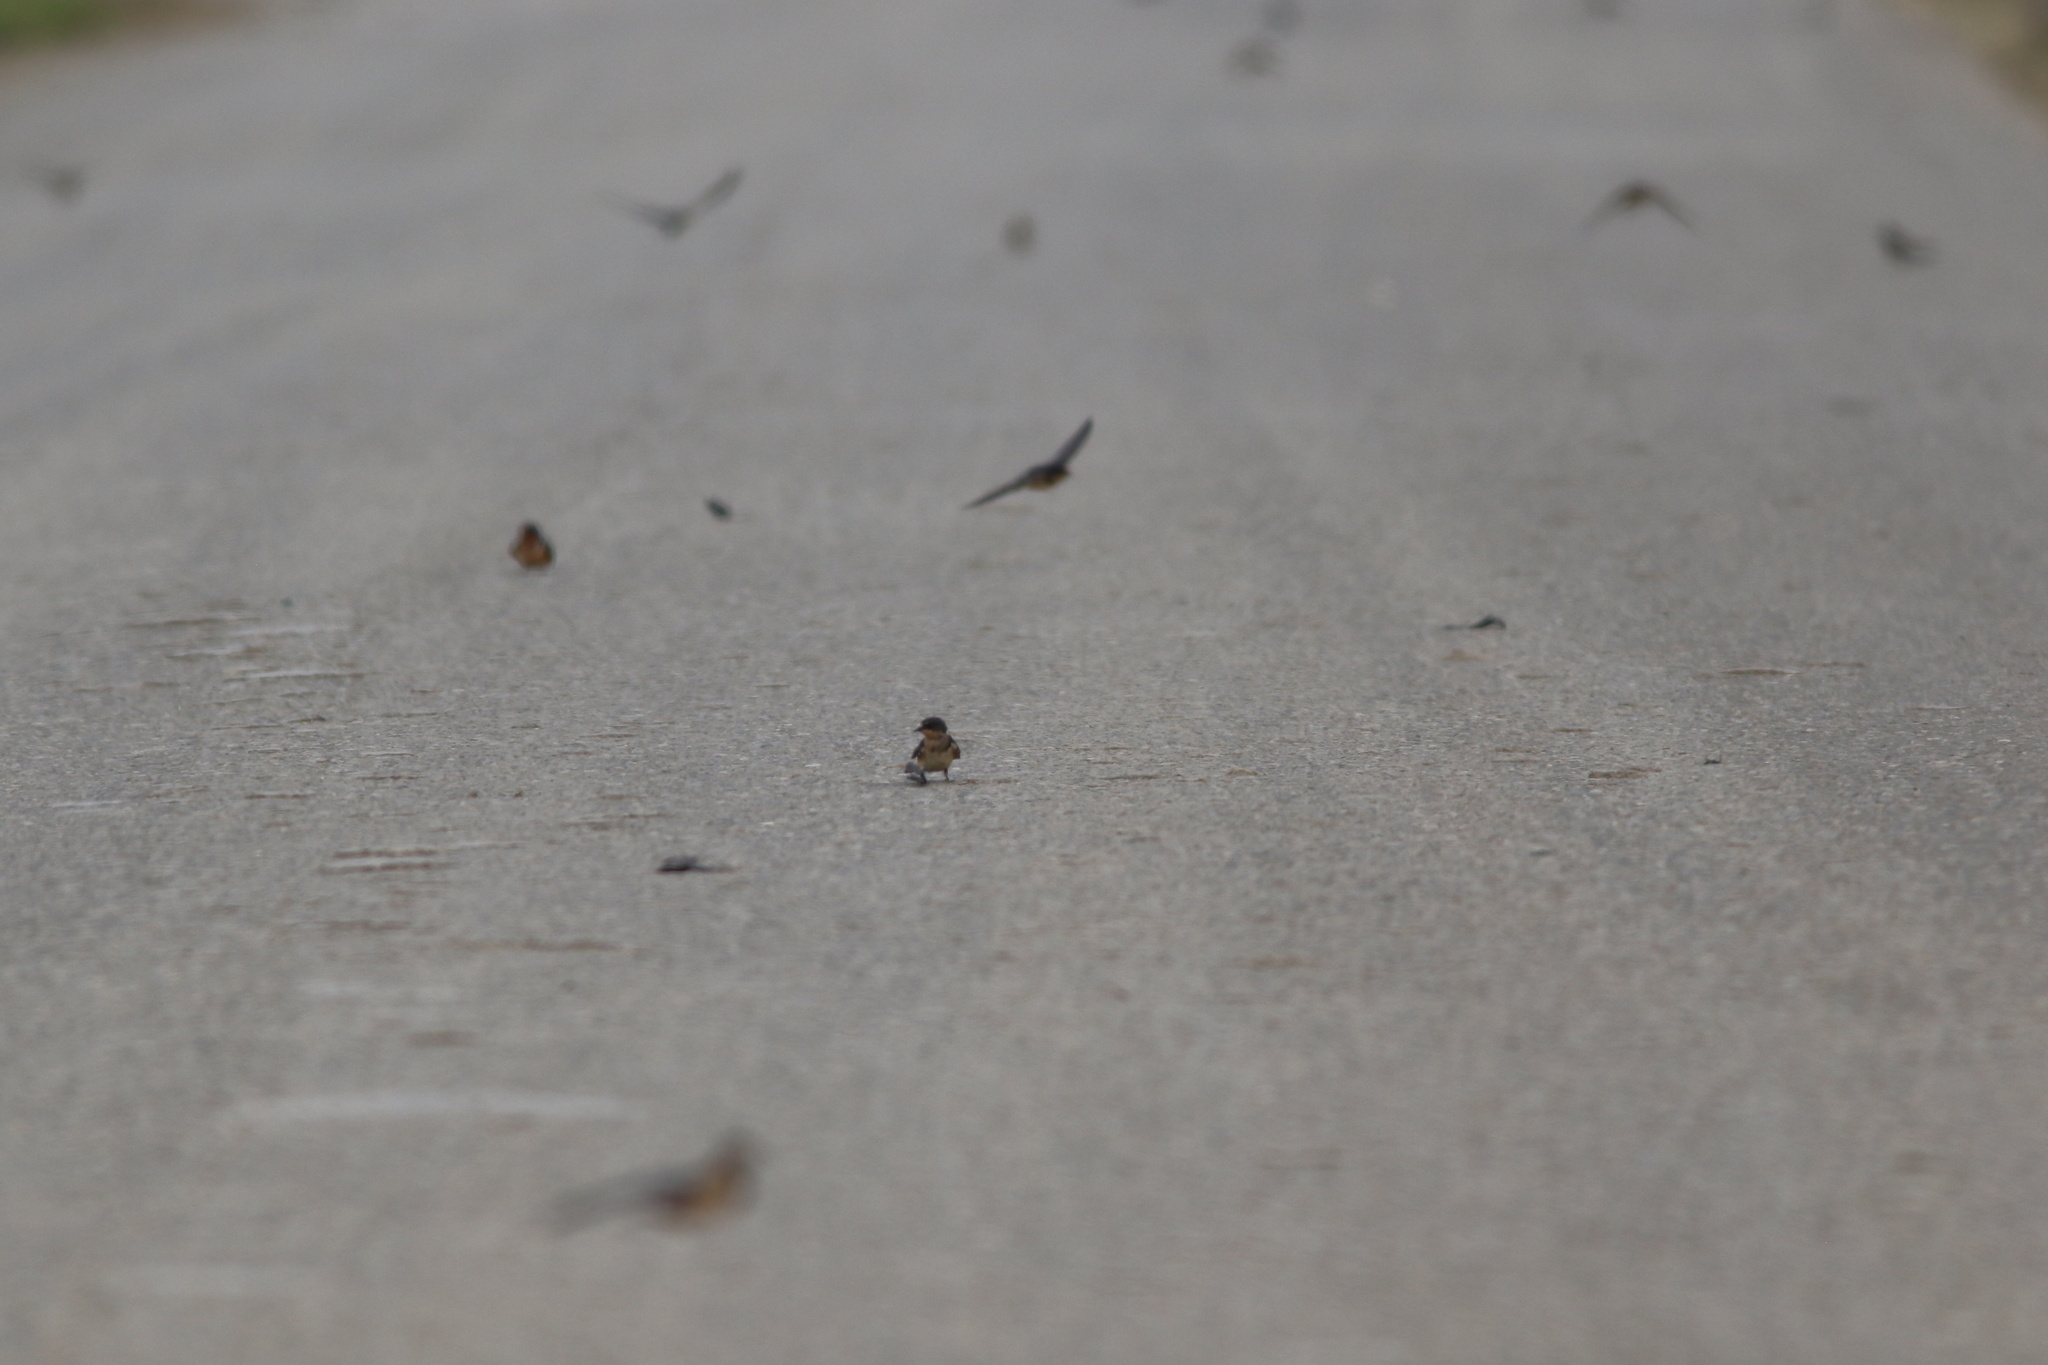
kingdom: Animalia
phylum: Chordata
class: Aves
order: Passeriformes
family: Hirundinidae
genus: Hirundo
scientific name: Hirundo rustica
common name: Barn swallow
